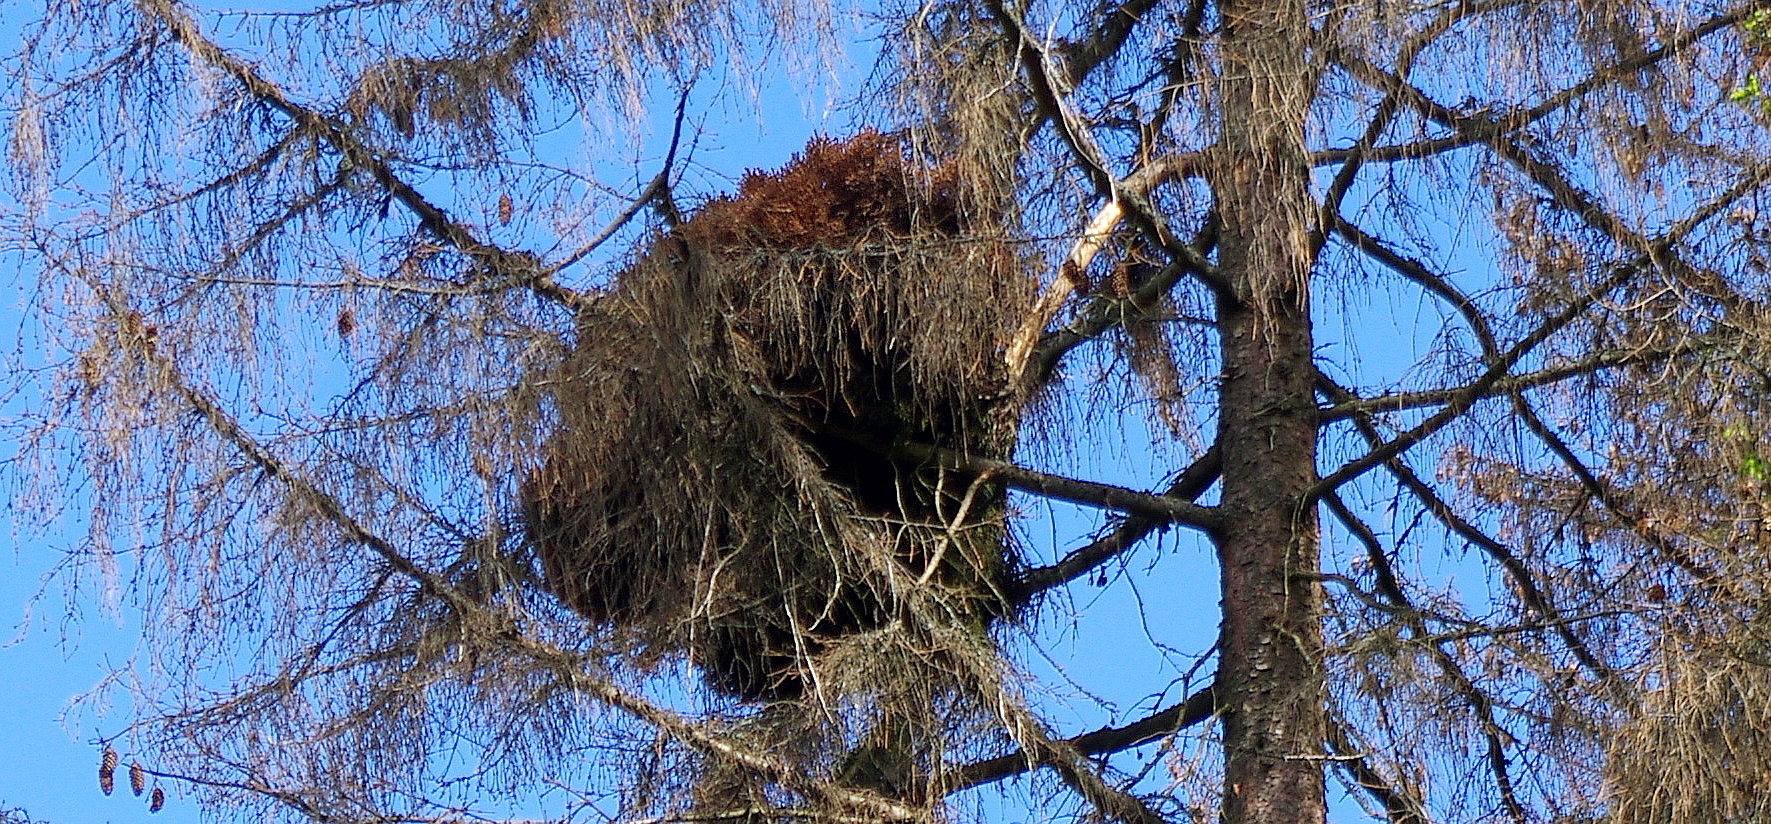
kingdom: Plantae
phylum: Tracheophyta
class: Pinopsida
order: Pinales
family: Pinaceae
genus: Picea
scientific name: Picea abies
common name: Norway spruce
